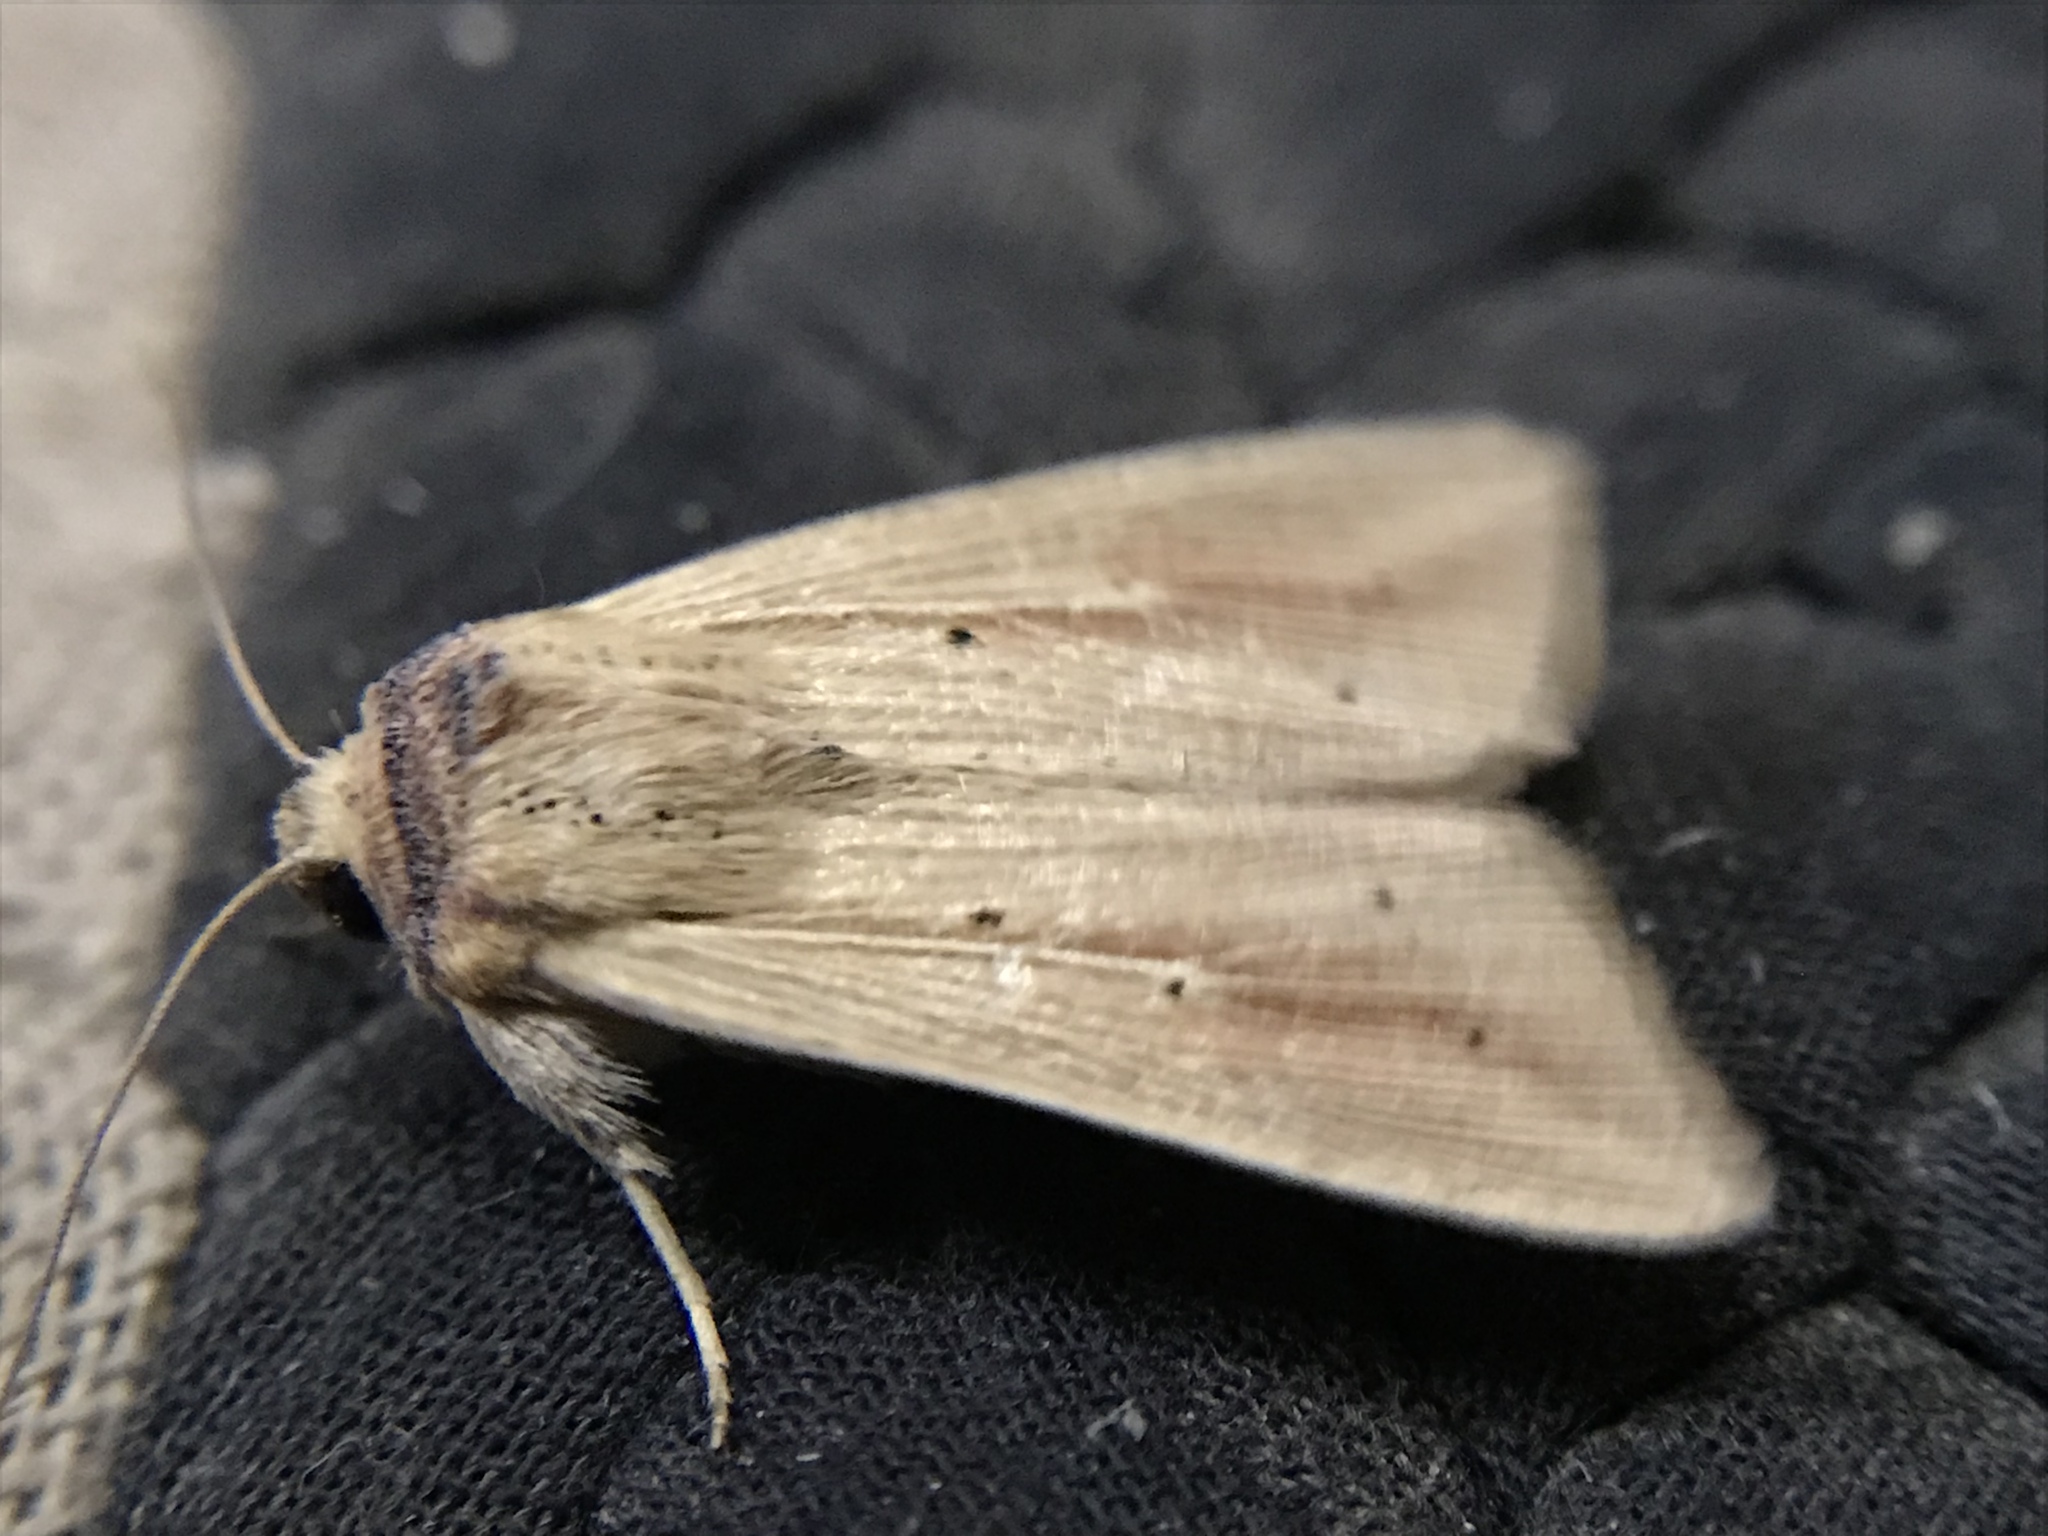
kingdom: Animalia
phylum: Arthropoda
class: Insecta
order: Lepidoptera
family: Noctuidae
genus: Leucania
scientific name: Leucania adjuta
